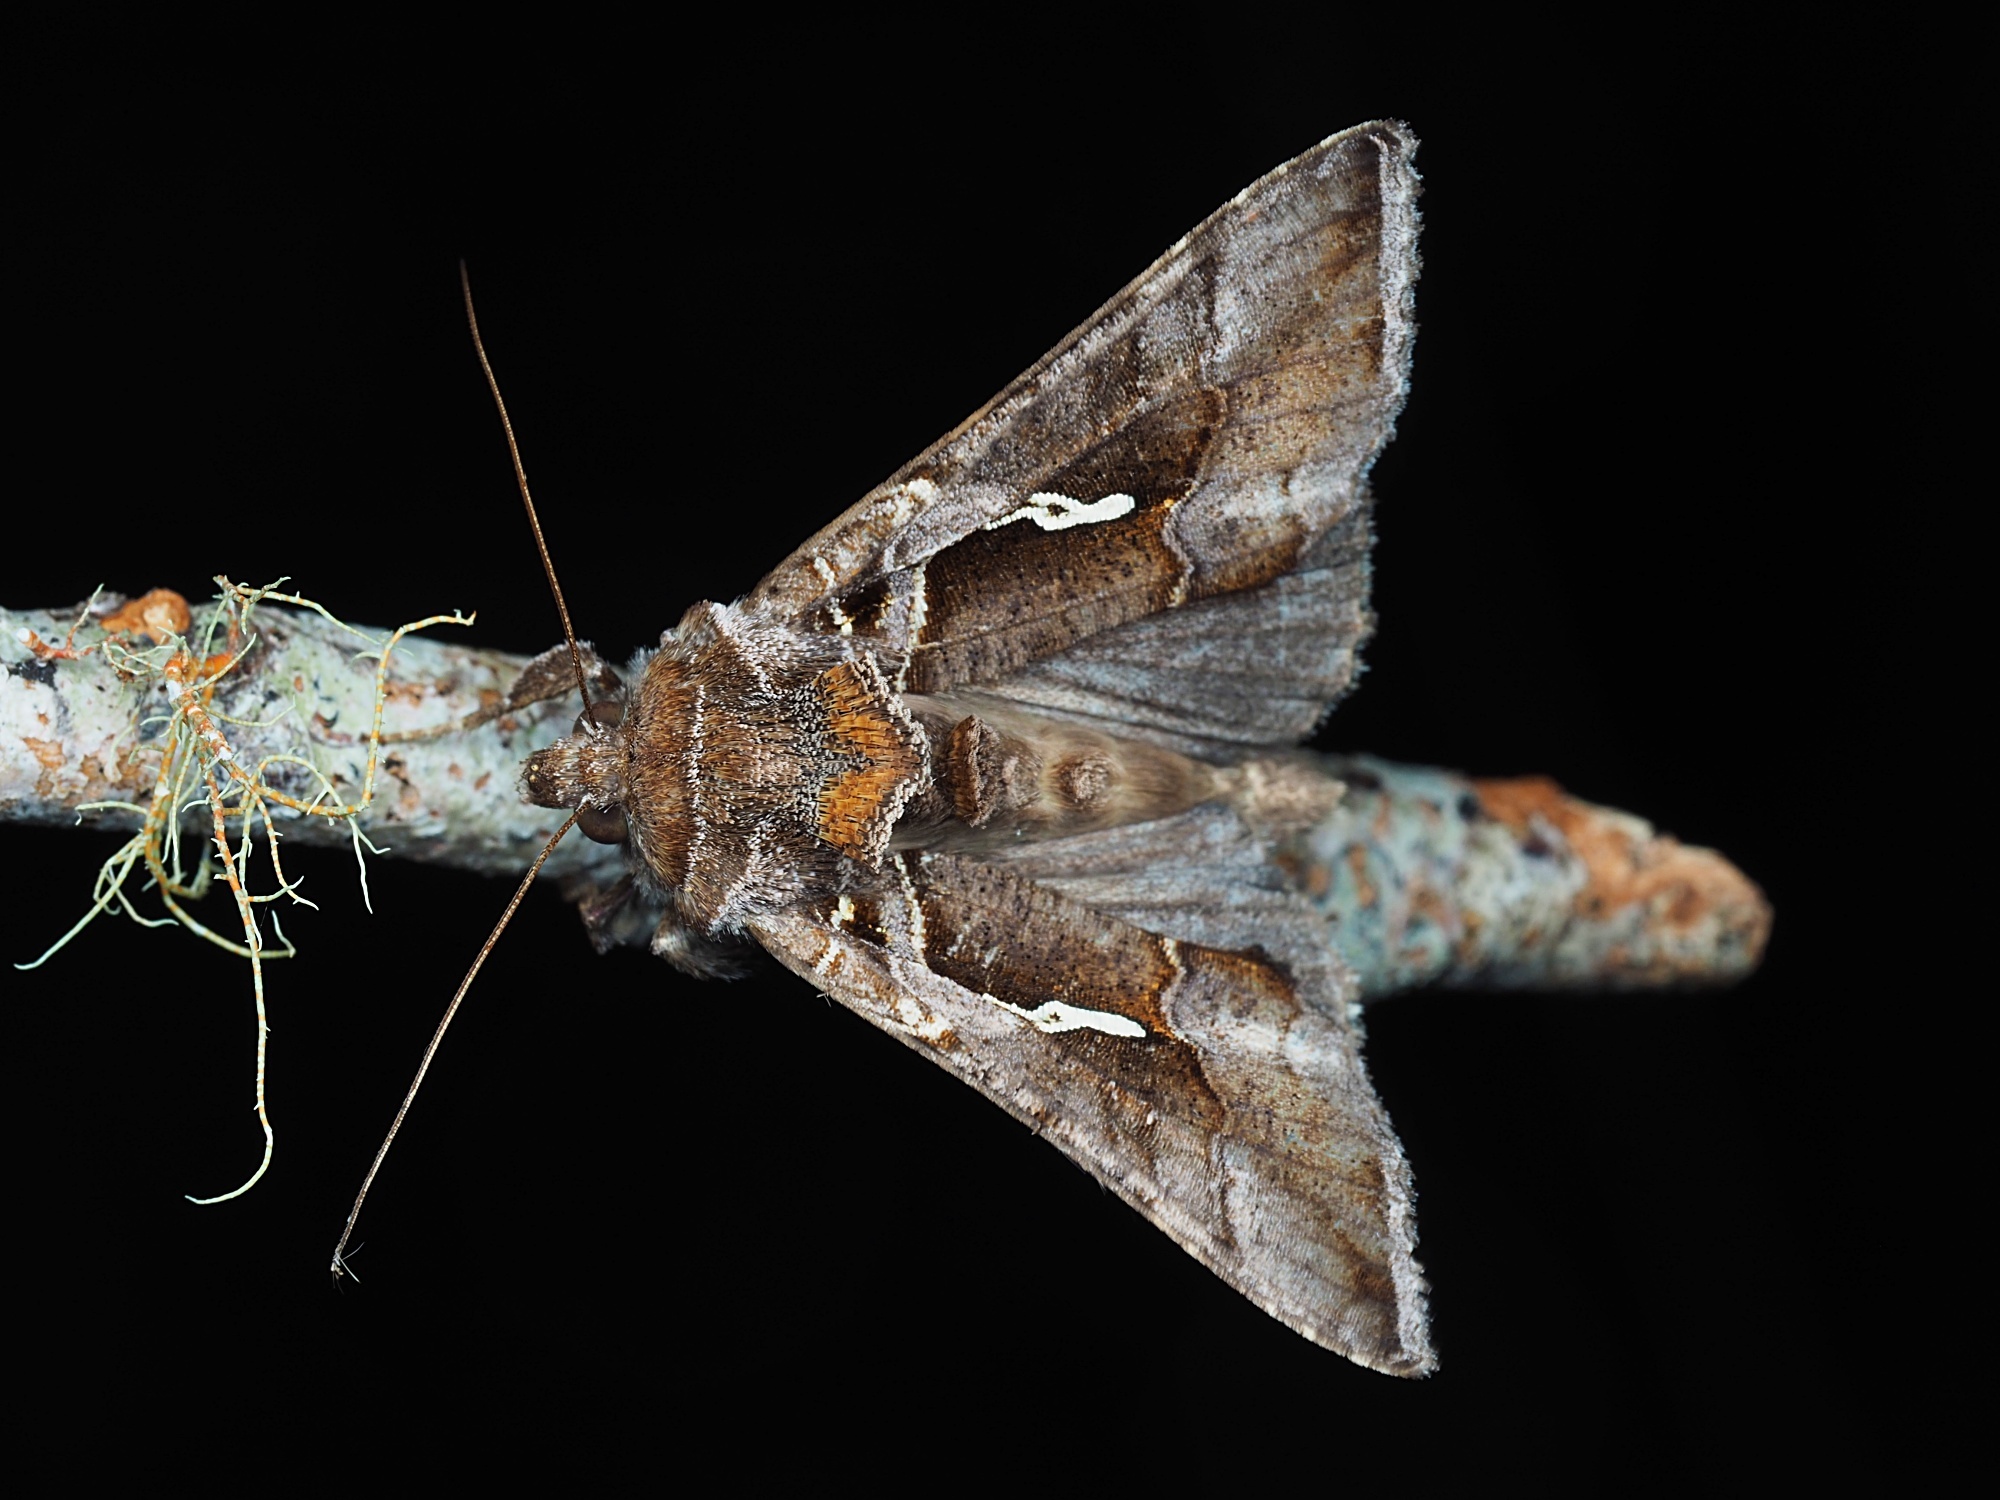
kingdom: Animalia
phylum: Arthropoda
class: Insecta
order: Lepidoptera
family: Noctuidae
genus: Chrysodeixis
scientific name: Chrysodeixis eriosoma
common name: Green garden looper
